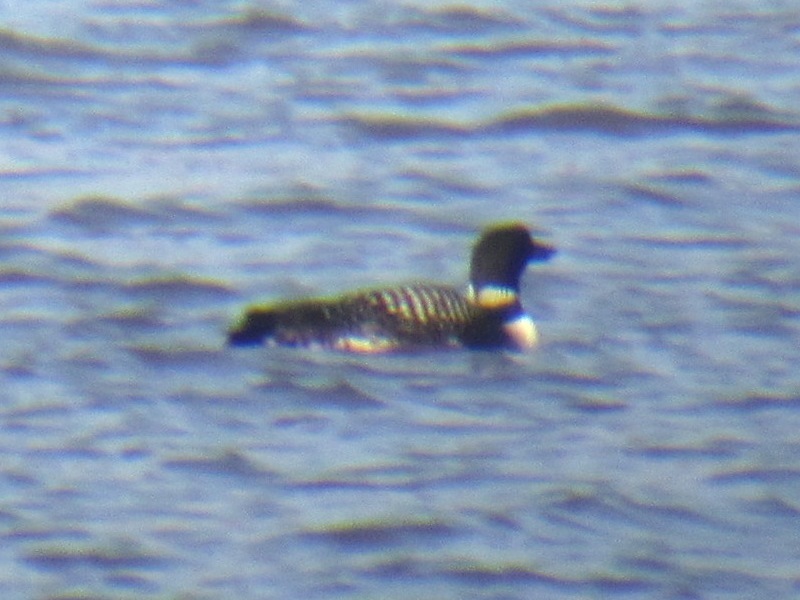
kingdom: Animalia
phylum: Chordata
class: Aves
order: Gaviiformes
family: Gaviidae
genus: Gavia
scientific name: Gavia immer
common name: Common loon
